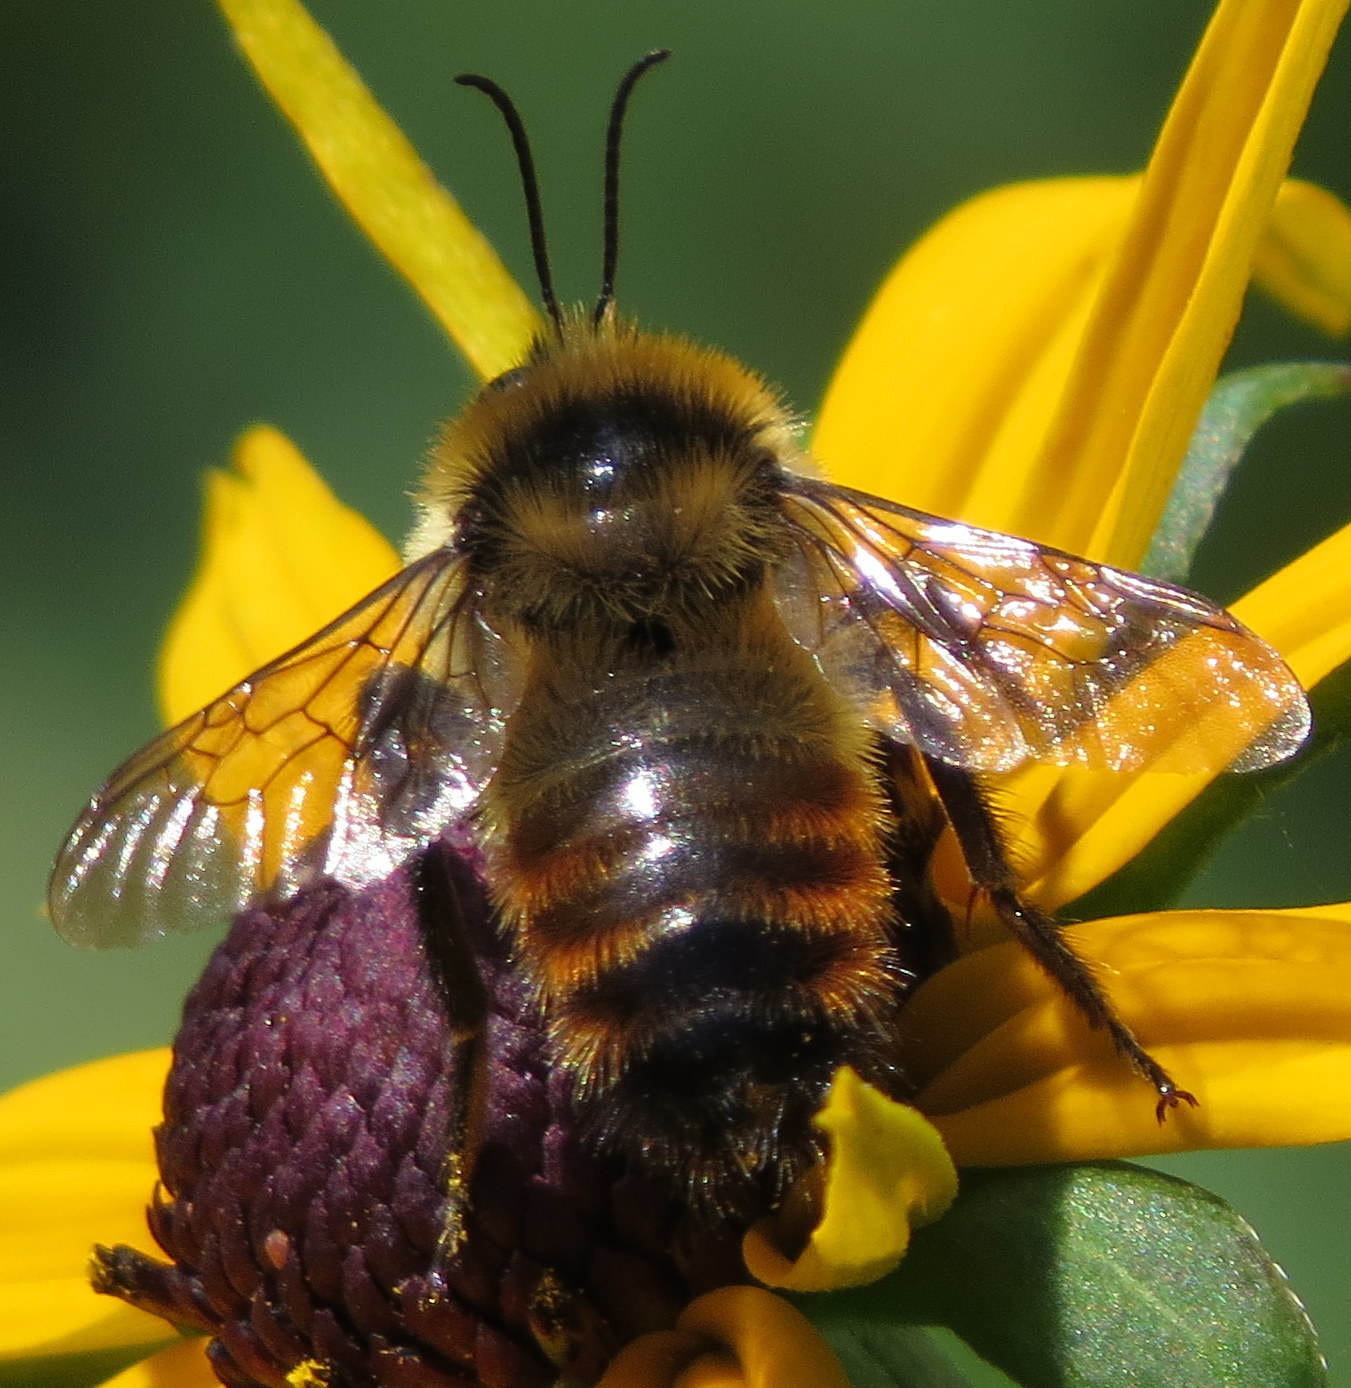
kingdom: Animalia
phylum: Arthropoda
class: Insecta
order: Hymenoptera
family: Apidae
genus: Bombus
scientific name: Bombus rufocinctus
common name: Red-belted bumble bee
